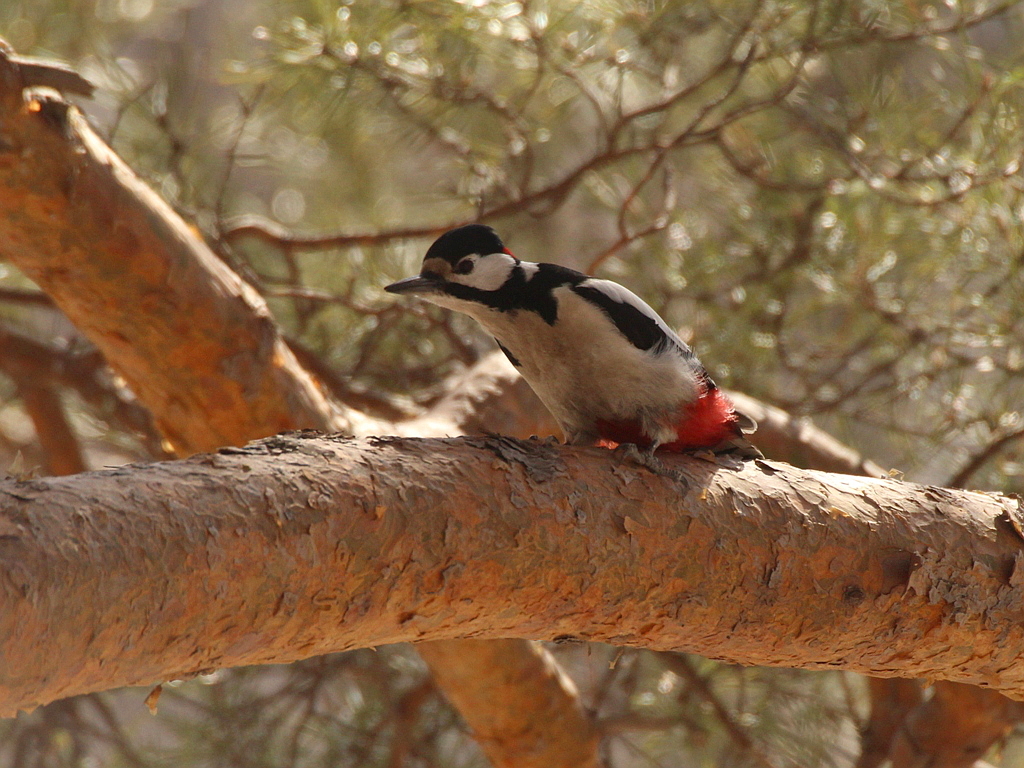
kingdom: Animalia
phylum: Chordata
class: Aves
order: Piciformes
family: Picidae
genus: Dendrocopos
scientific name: Dendrocopos major
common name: Great spotted woodpecker
